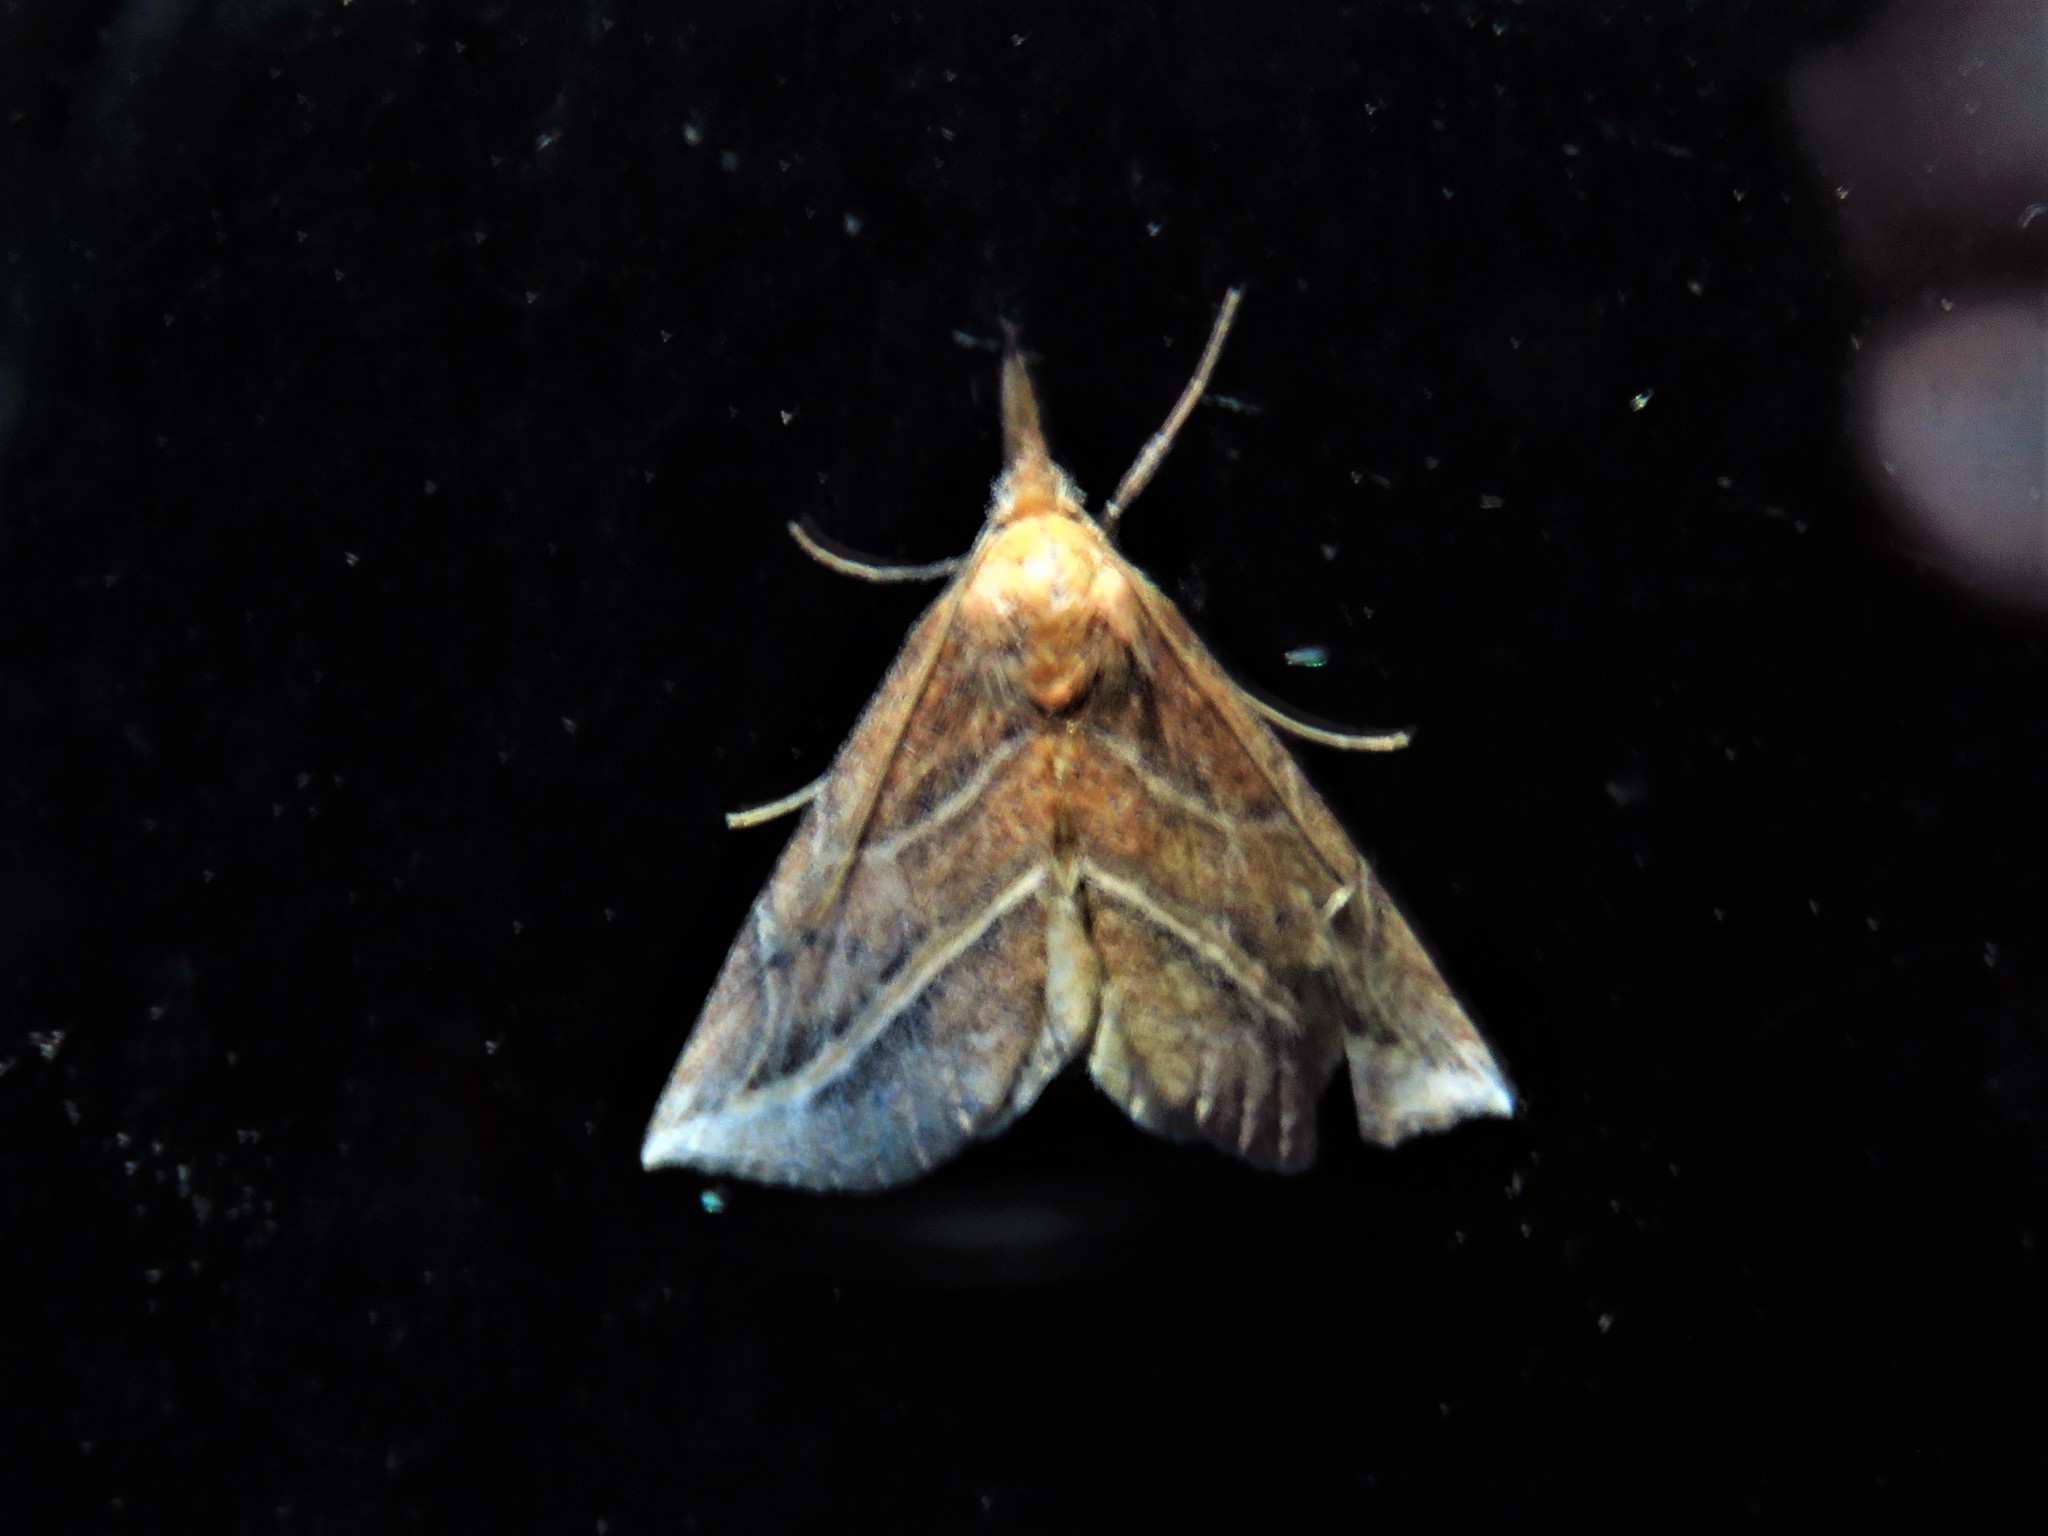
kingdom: Animalia
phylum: Arthropoda
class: Insecta
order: Lepidoptera
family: Erebidae
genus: Phyprosopus
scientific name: Phyprosopus callitrichoides
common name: Curved-lined owlet
